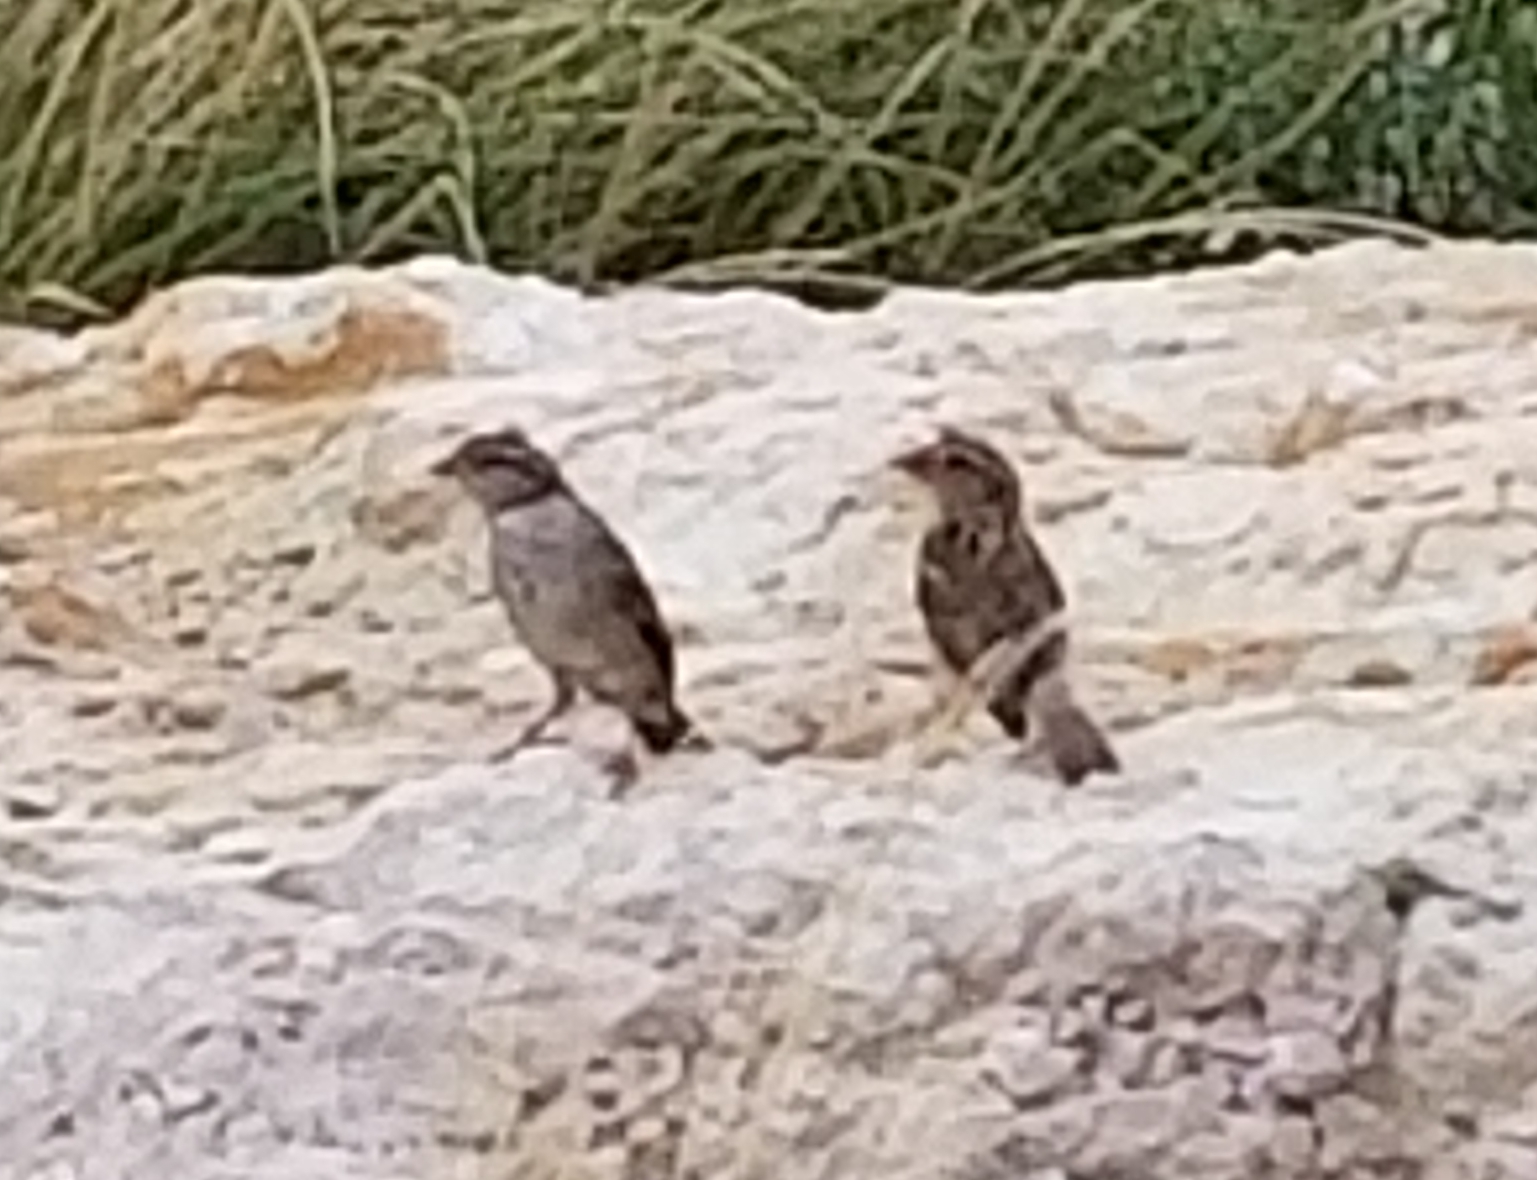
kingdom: Animalia
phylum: Chordata
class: Aves
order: Passeriformes
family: Passeridae
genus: Passer
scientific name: Passer domesticus
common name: House sparrow
